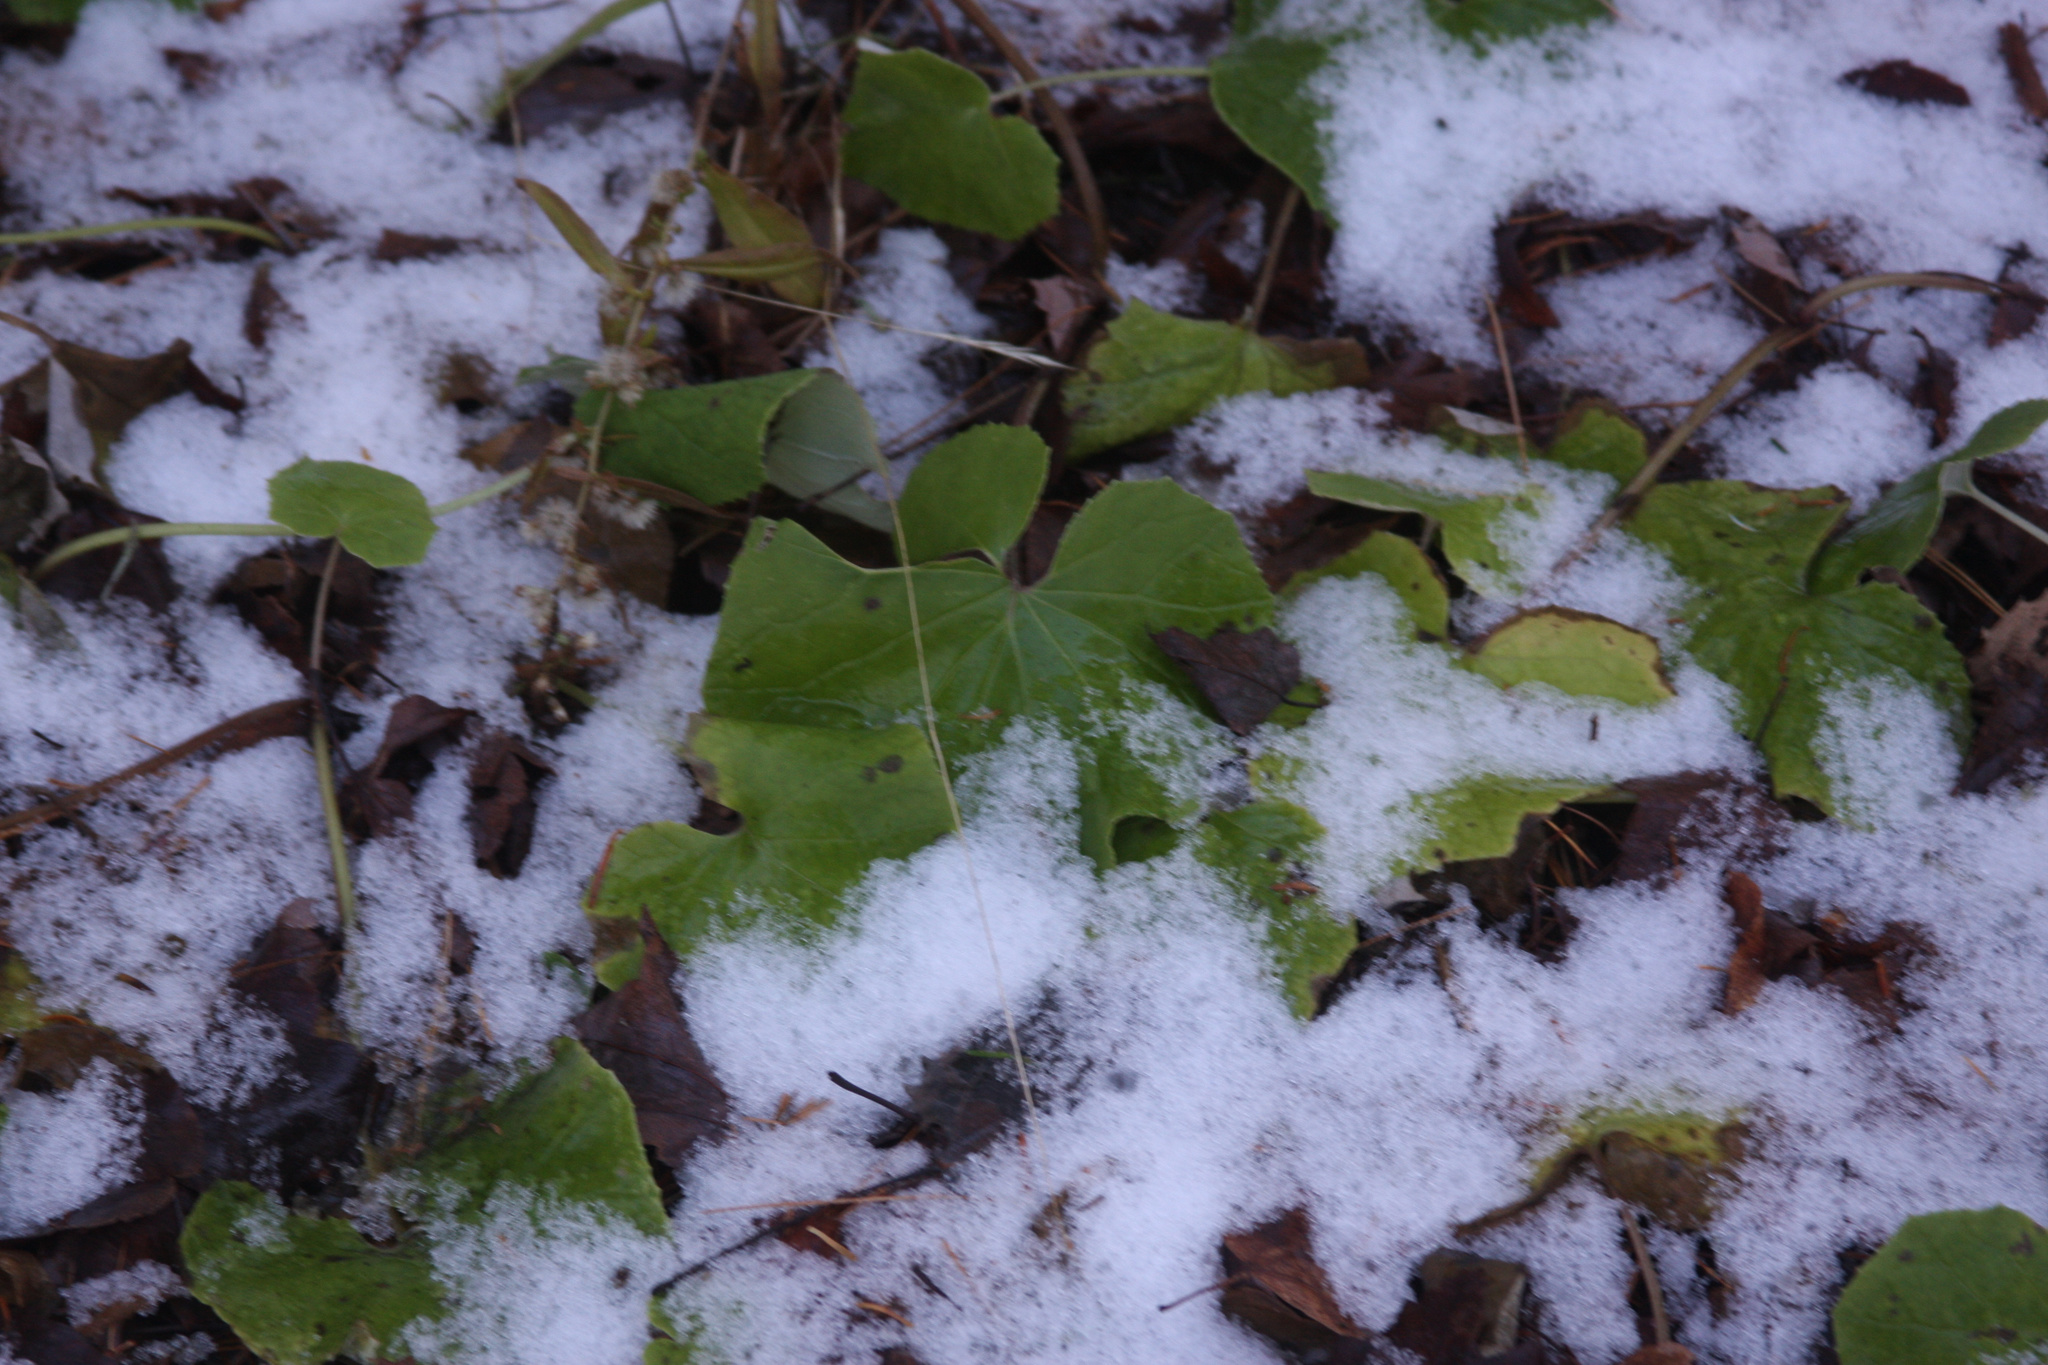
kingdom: Plantae
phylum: Tracheophyta
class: Magnoliopsida
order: Asterales
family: Asteraceae
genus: Tussilago
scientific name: Tussilago farfara
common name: Coltsfoot
